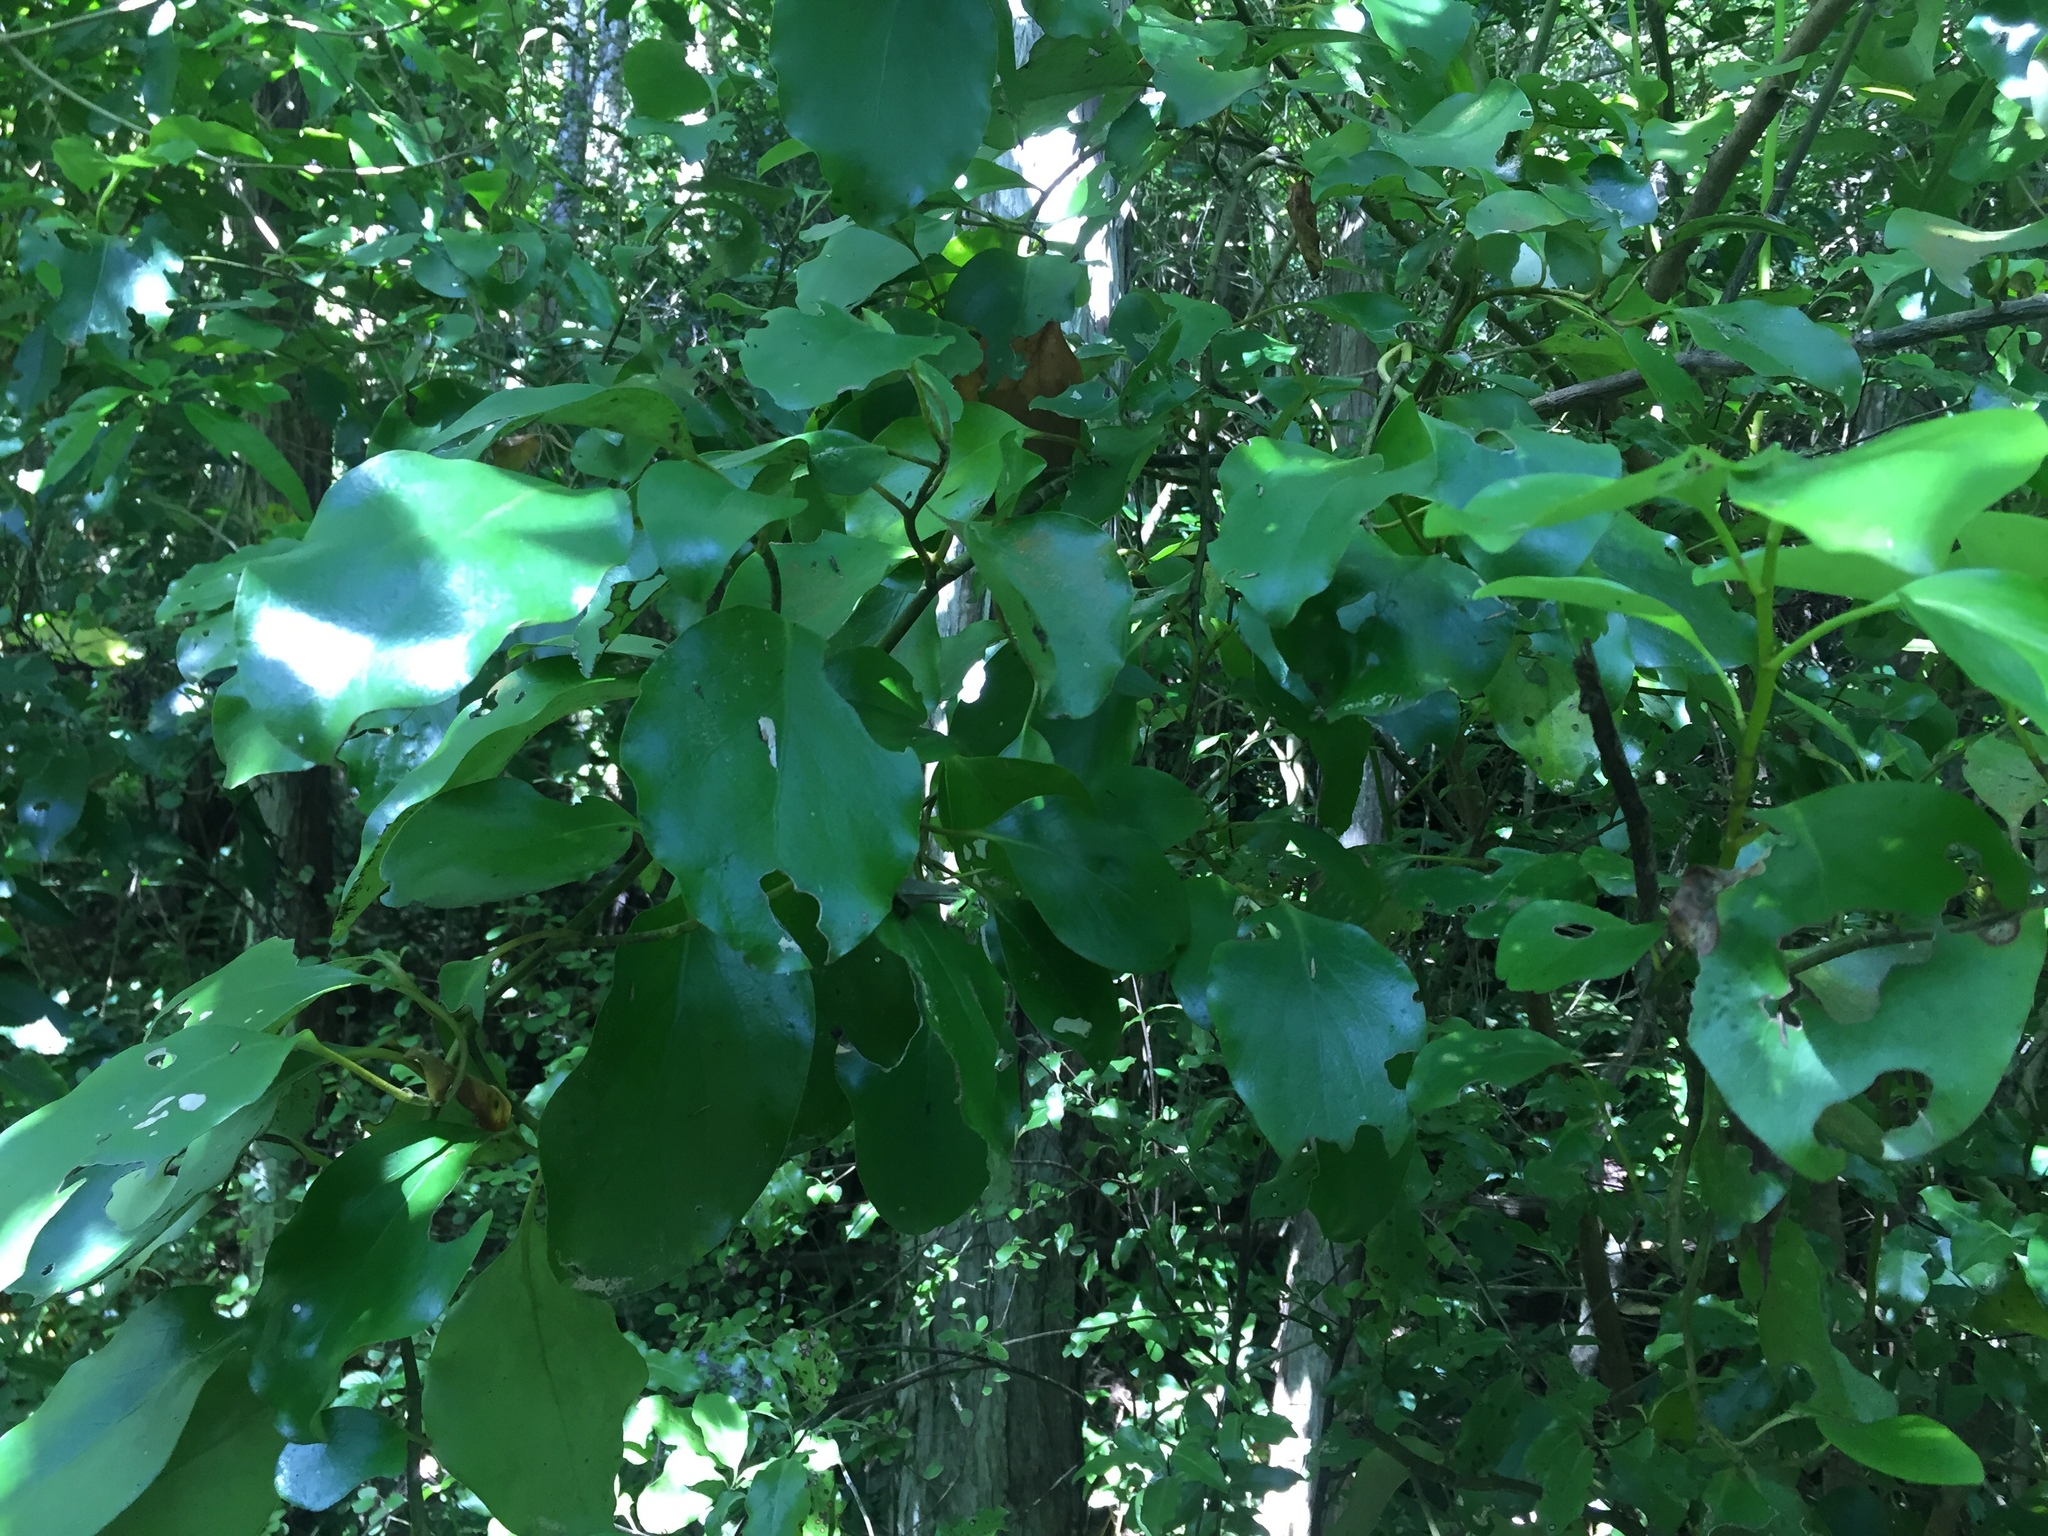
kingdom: Plantae
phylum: Tracheophyta
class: Magnoliopsida
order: Apiales
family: Griseliniaceae
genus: Griselinia
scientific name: Griselinia littoralis
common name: New zealand broadleaf
